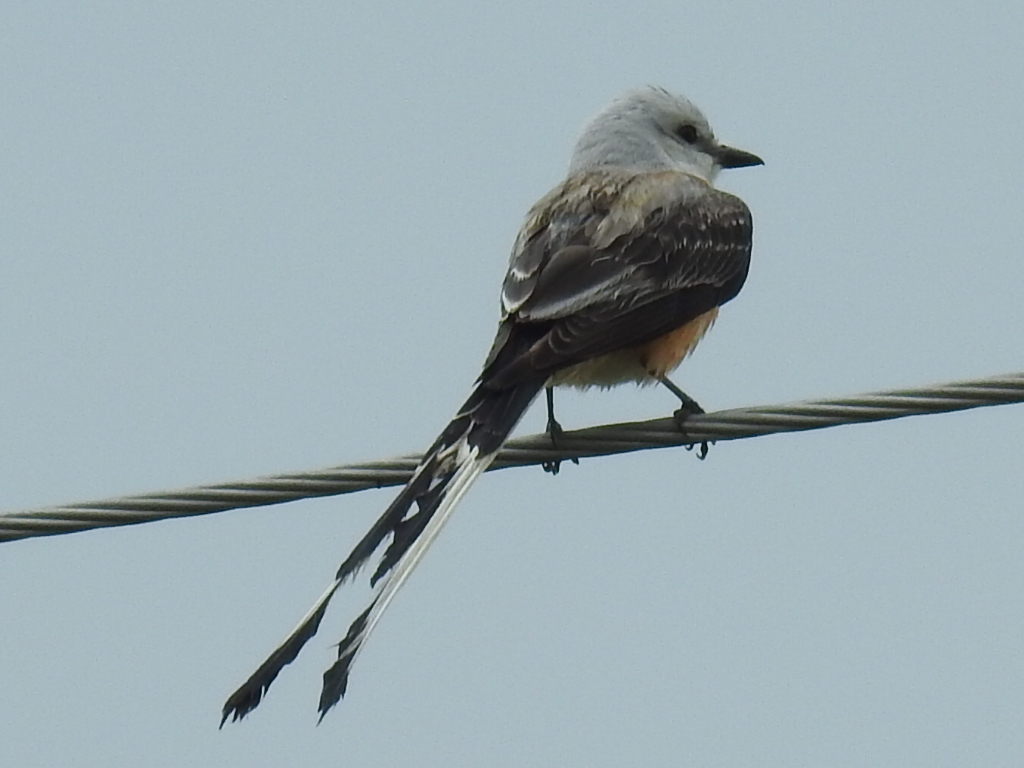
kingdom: Animalia
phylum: Chordata
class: Aves
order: Passeriformes
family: Tyrannidae
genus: Tyrannus
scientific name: Tyrannus forficatus
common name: Scissor-tailed flycatcher
